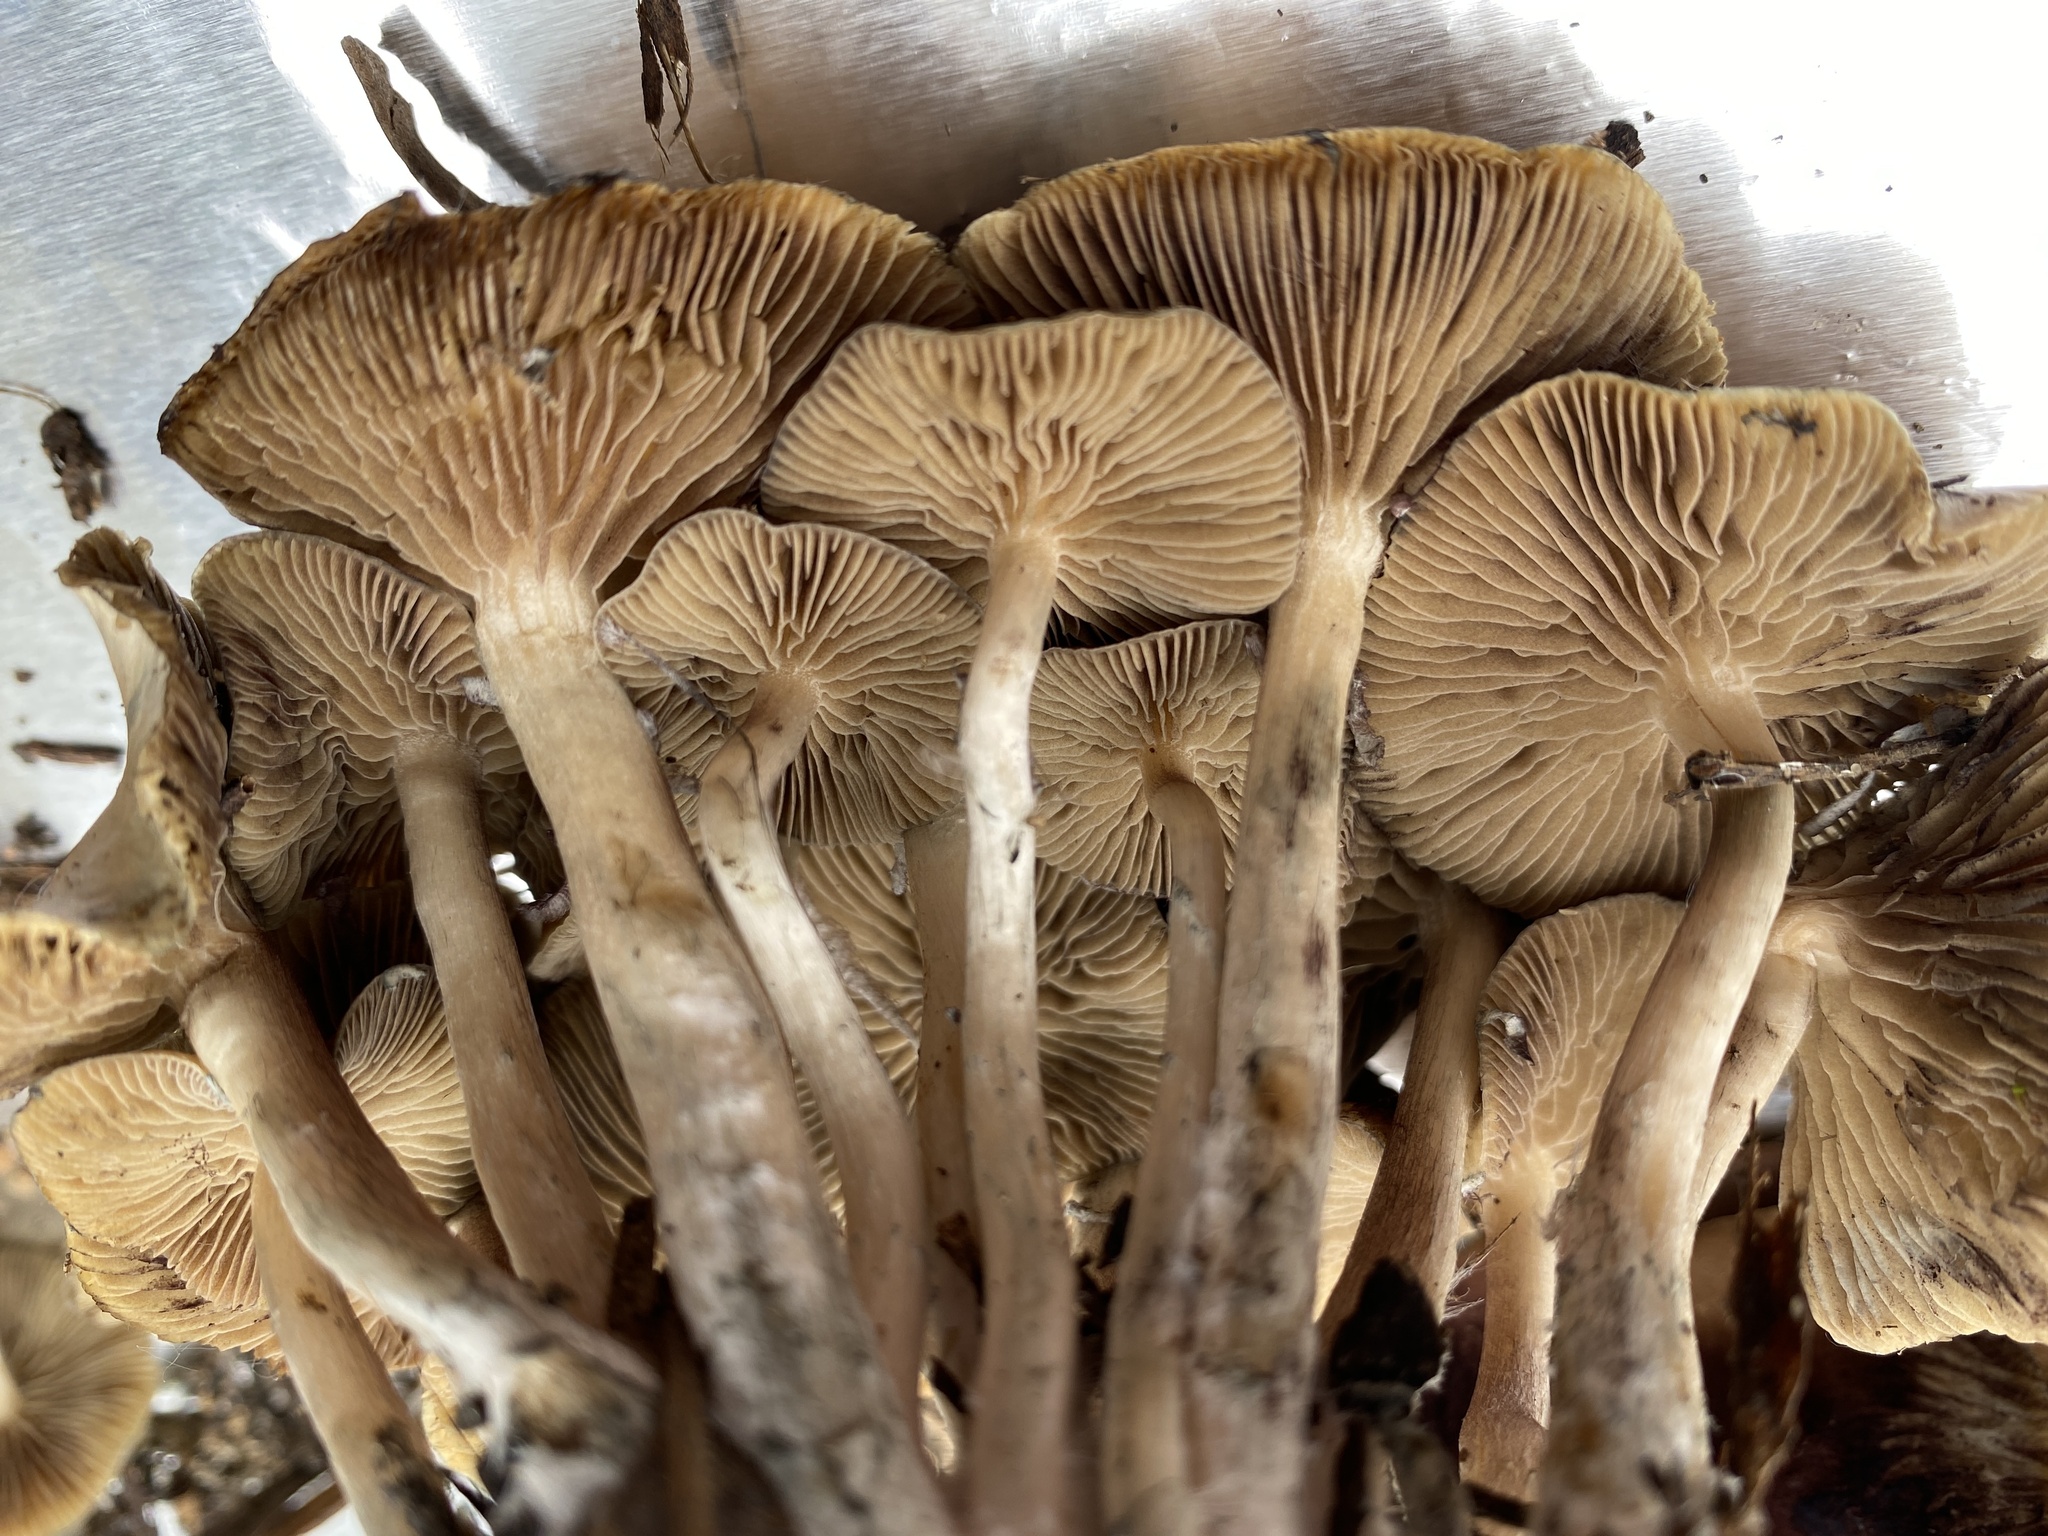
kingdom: Fungi
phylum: Basidiomycota
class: Agaricomycetes
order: Agaricales
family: Hymenogastraceae
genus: Psilocybe
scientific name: Psilocybe ovoideocystidiata
